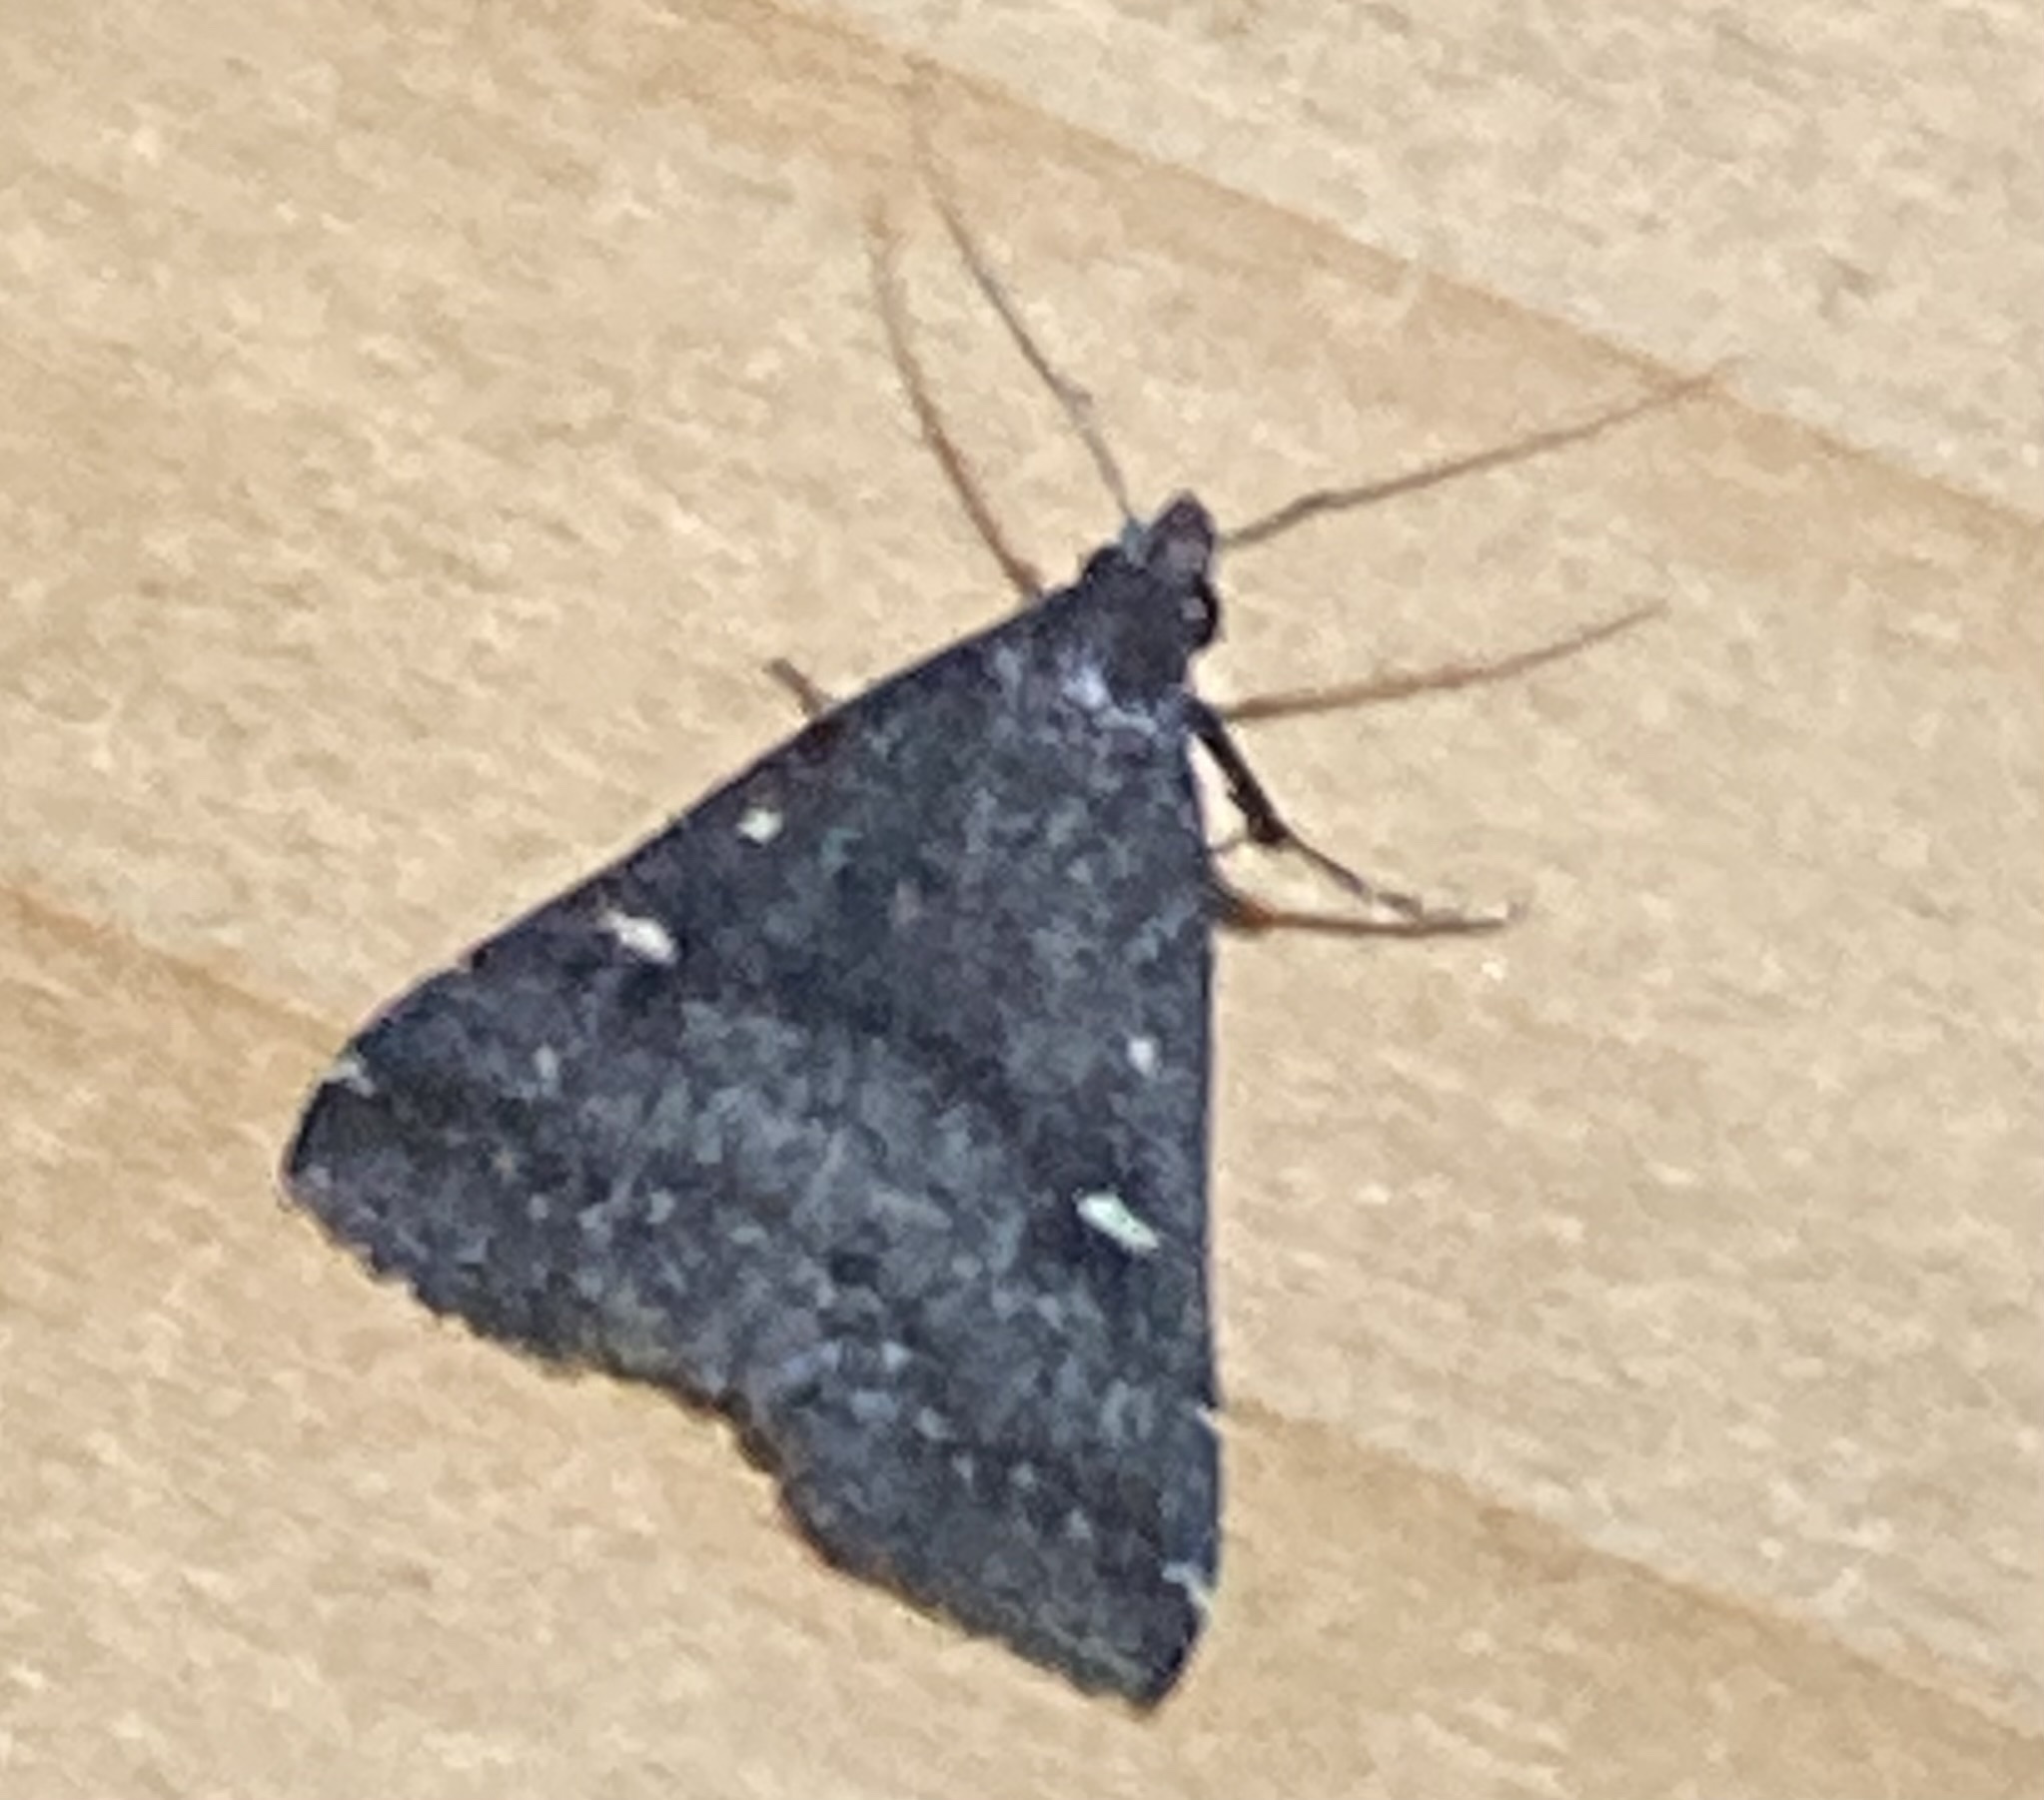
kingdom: Animalia
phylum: Arthropoda
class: Insecta
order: Lepidoptera
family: Erebidae
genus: Tetanolita
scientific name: Tetanolita mynesalis
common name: Smoky tetanolita moth
